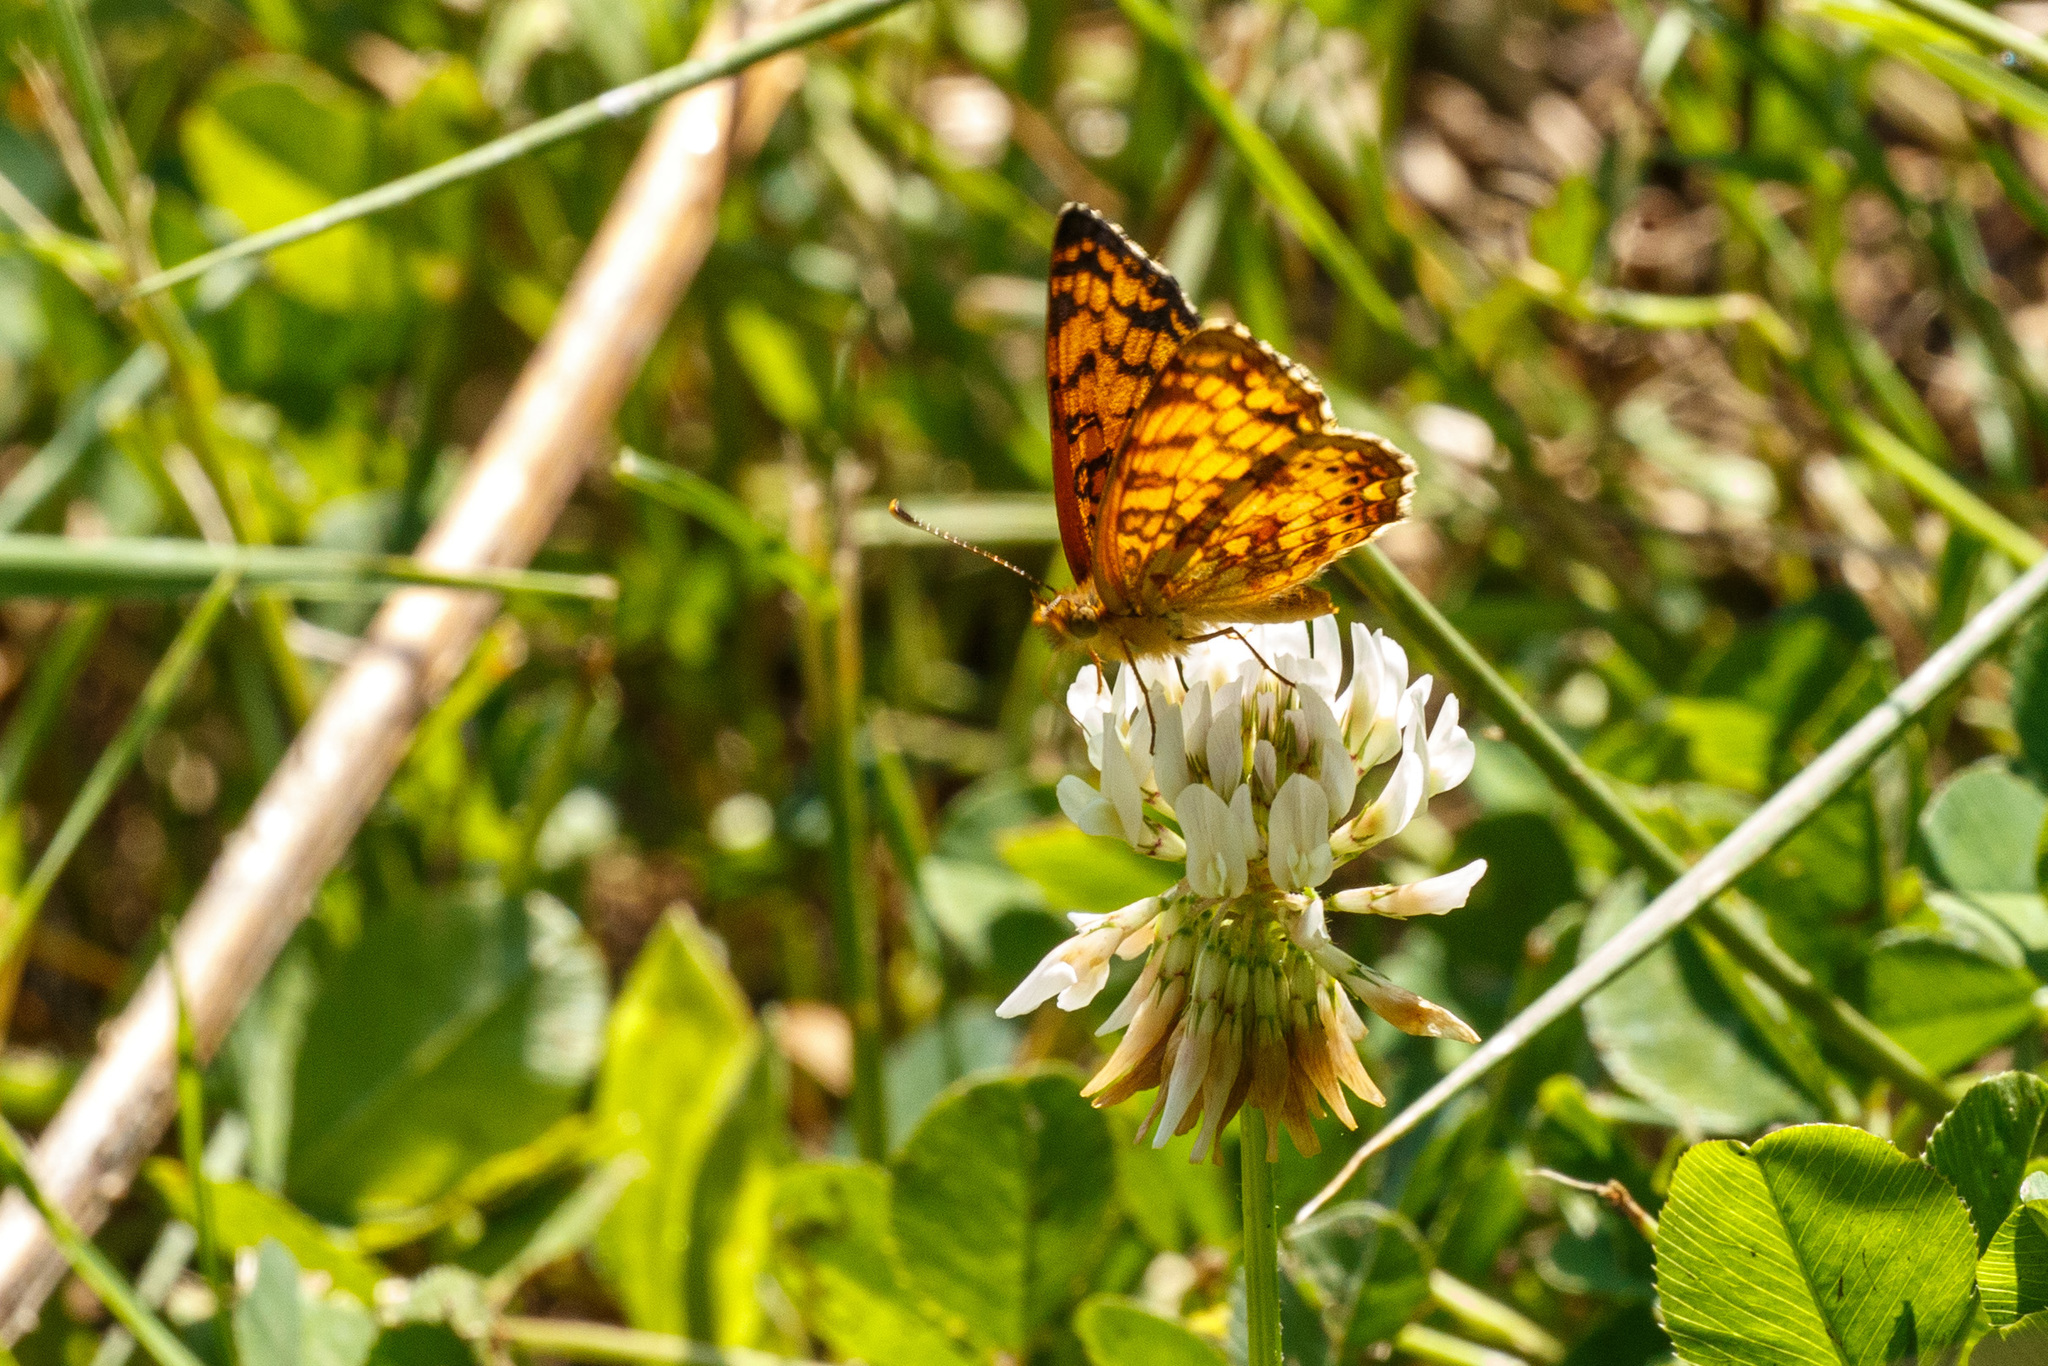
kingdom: Animalia
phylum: Arthropoda
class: Insecta
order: Lepidoptera
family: Nymphalidae
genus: Eresia
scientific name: Eresia aveyrona
